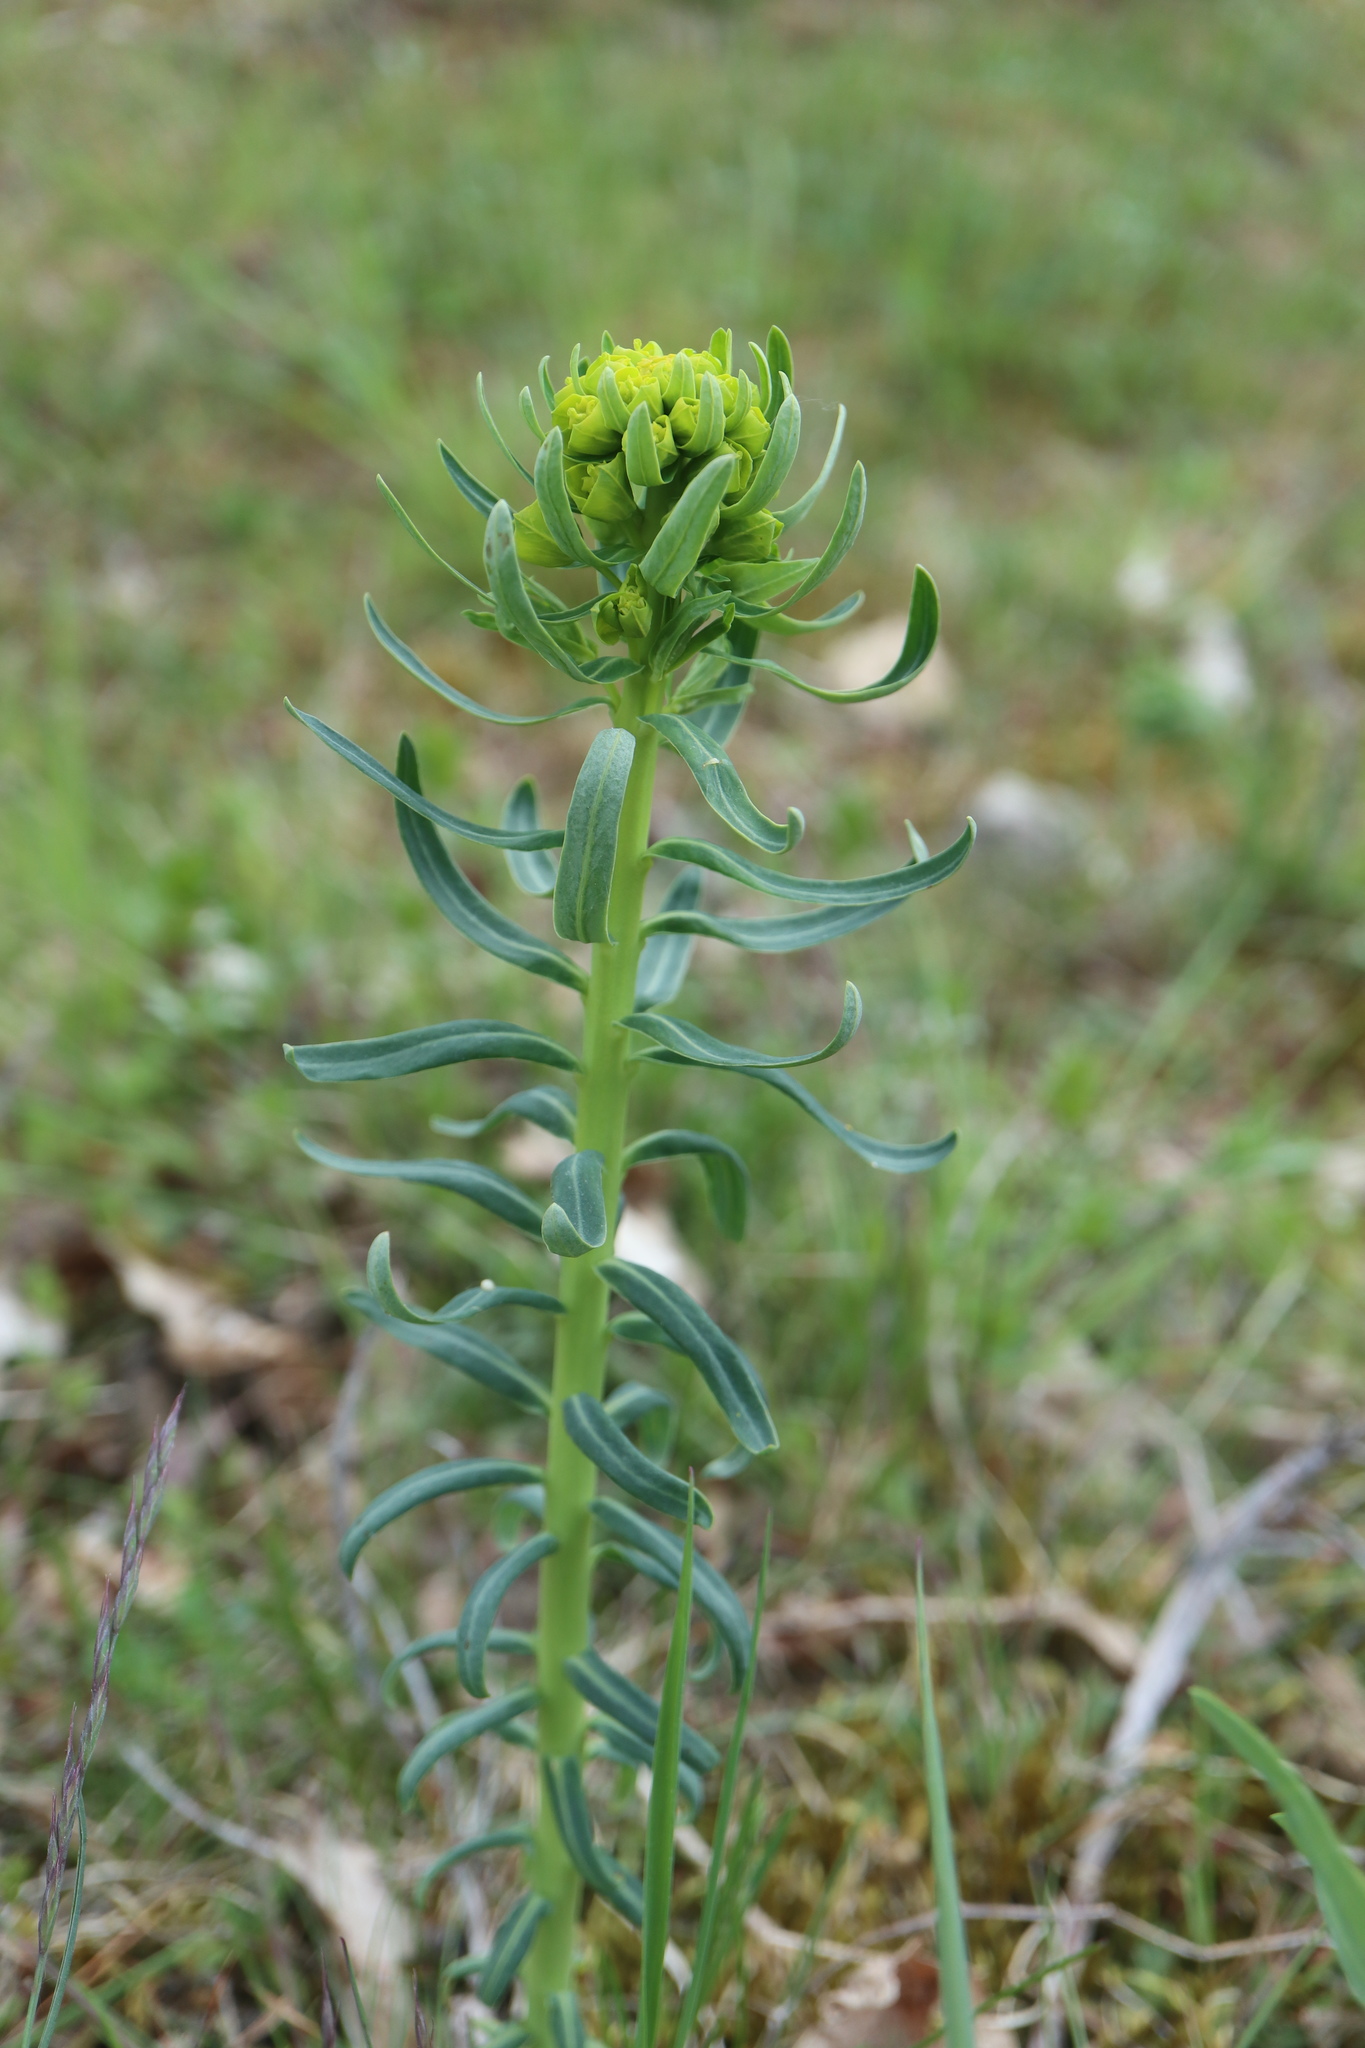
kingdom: Plantae
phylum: Tracheophyta
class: Magnoliopsida
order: Malpighiales
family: Euphorbiaceae
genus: Euphorbia
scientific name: Euphorbia cyparissias
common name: Cypress spurge
